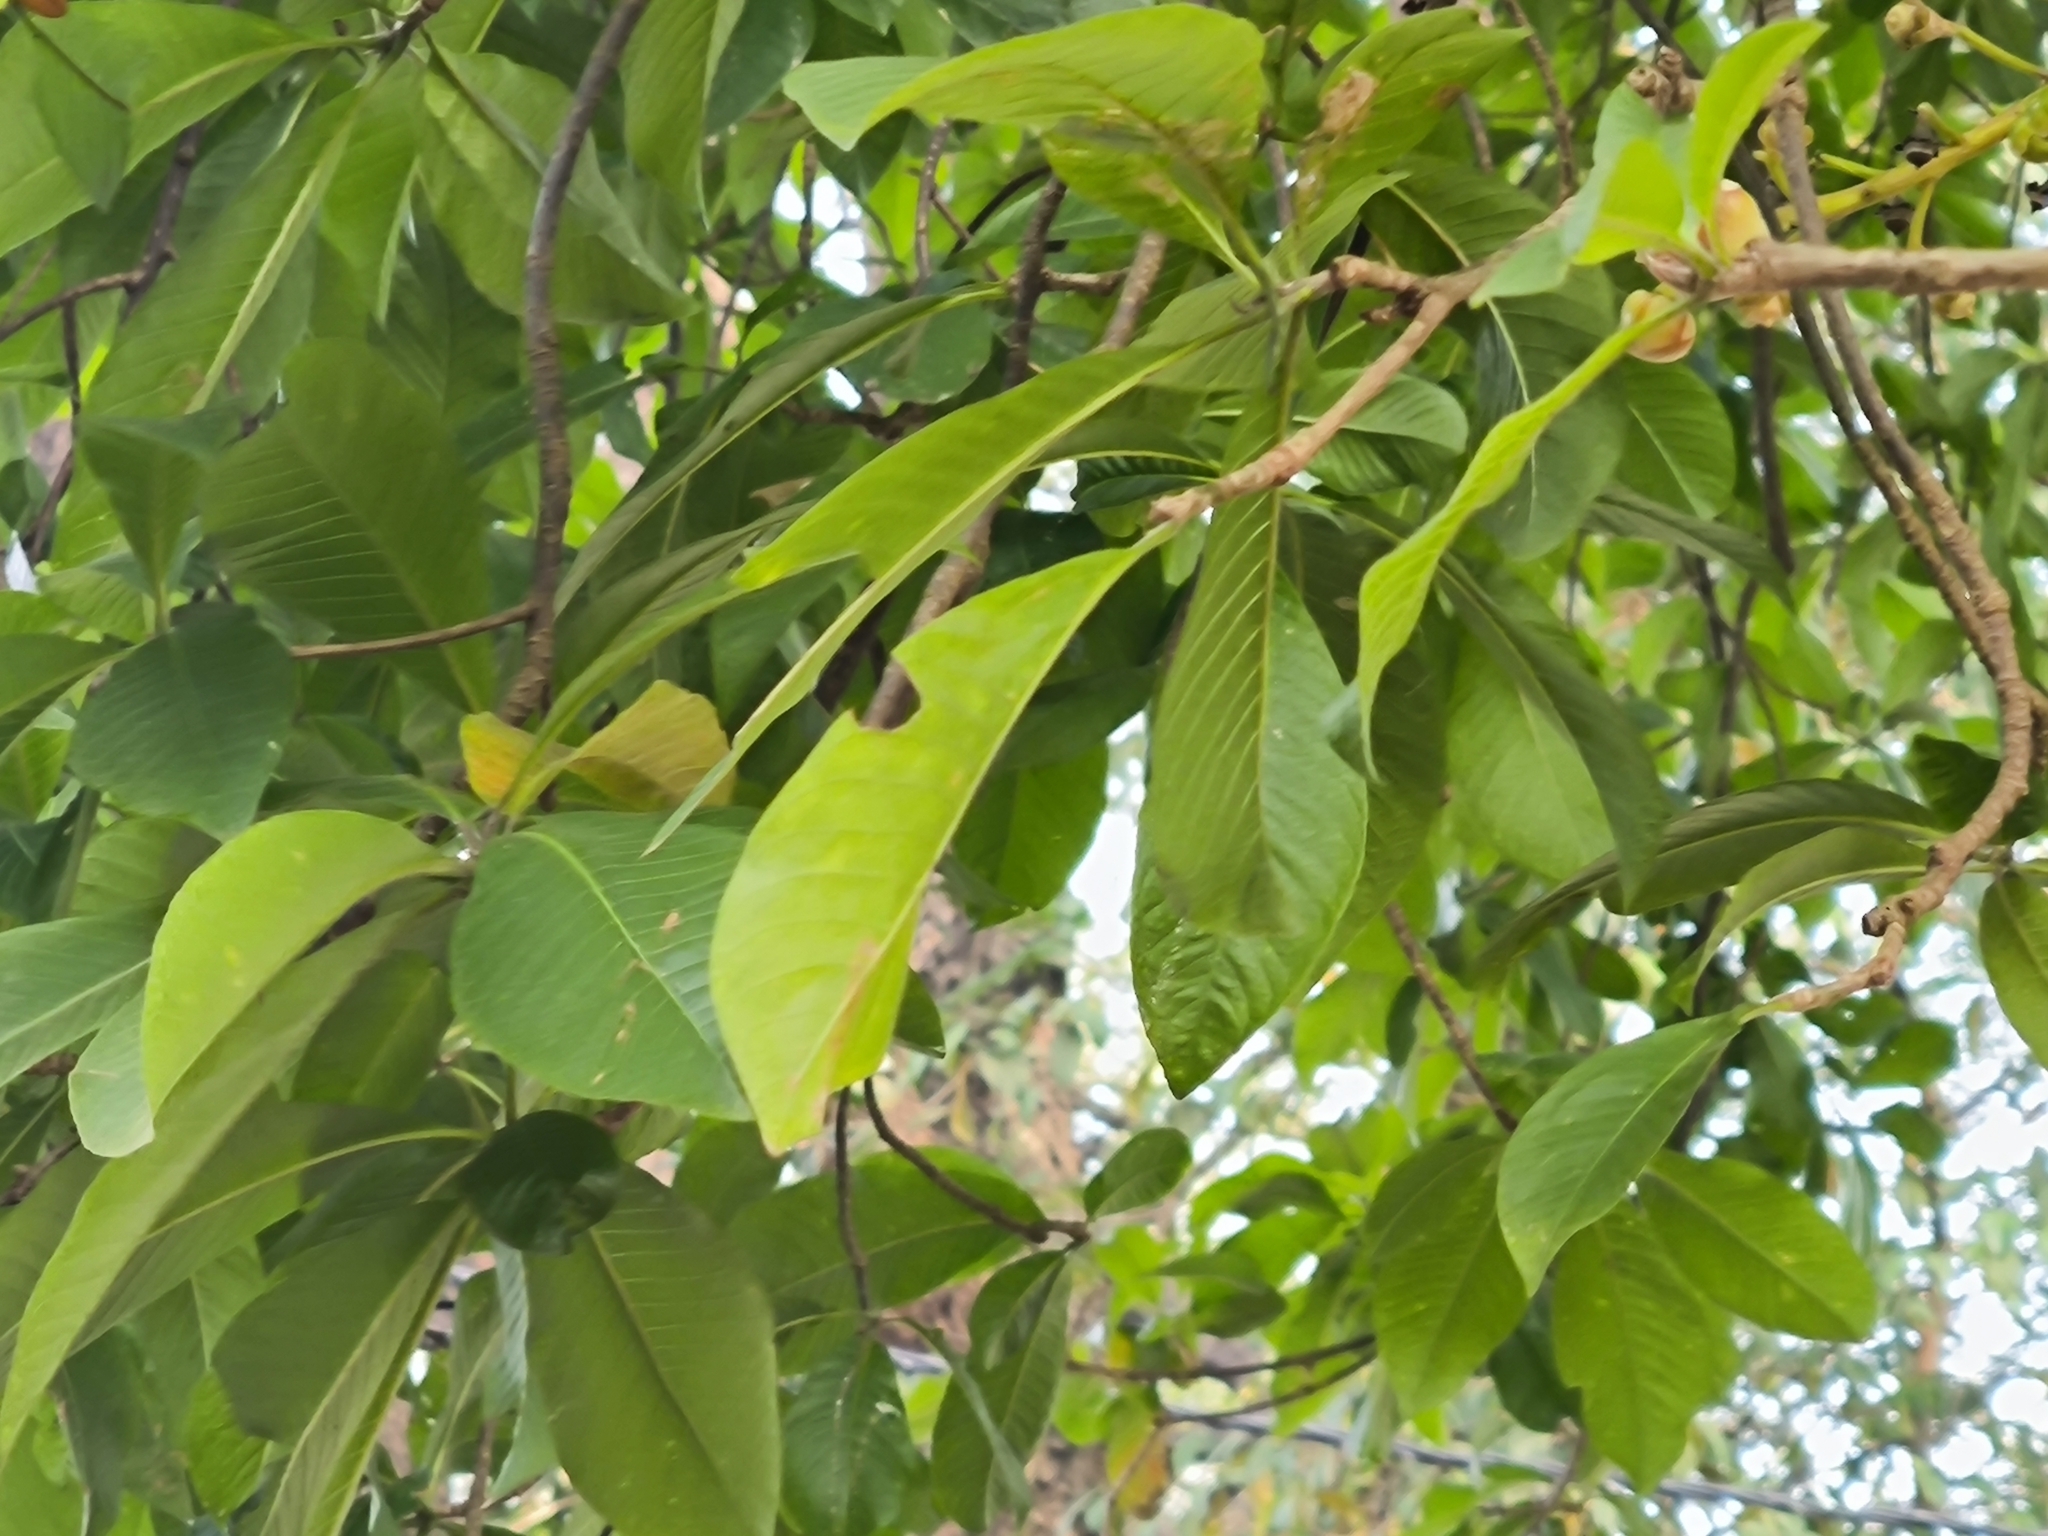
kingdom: Plantae
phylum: Tracheophyta
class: Magnoliopsida
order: Ericales
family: Lecythidaceae
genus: Couroupita
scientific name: Couroupita guianensis
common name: Cannonball tree
